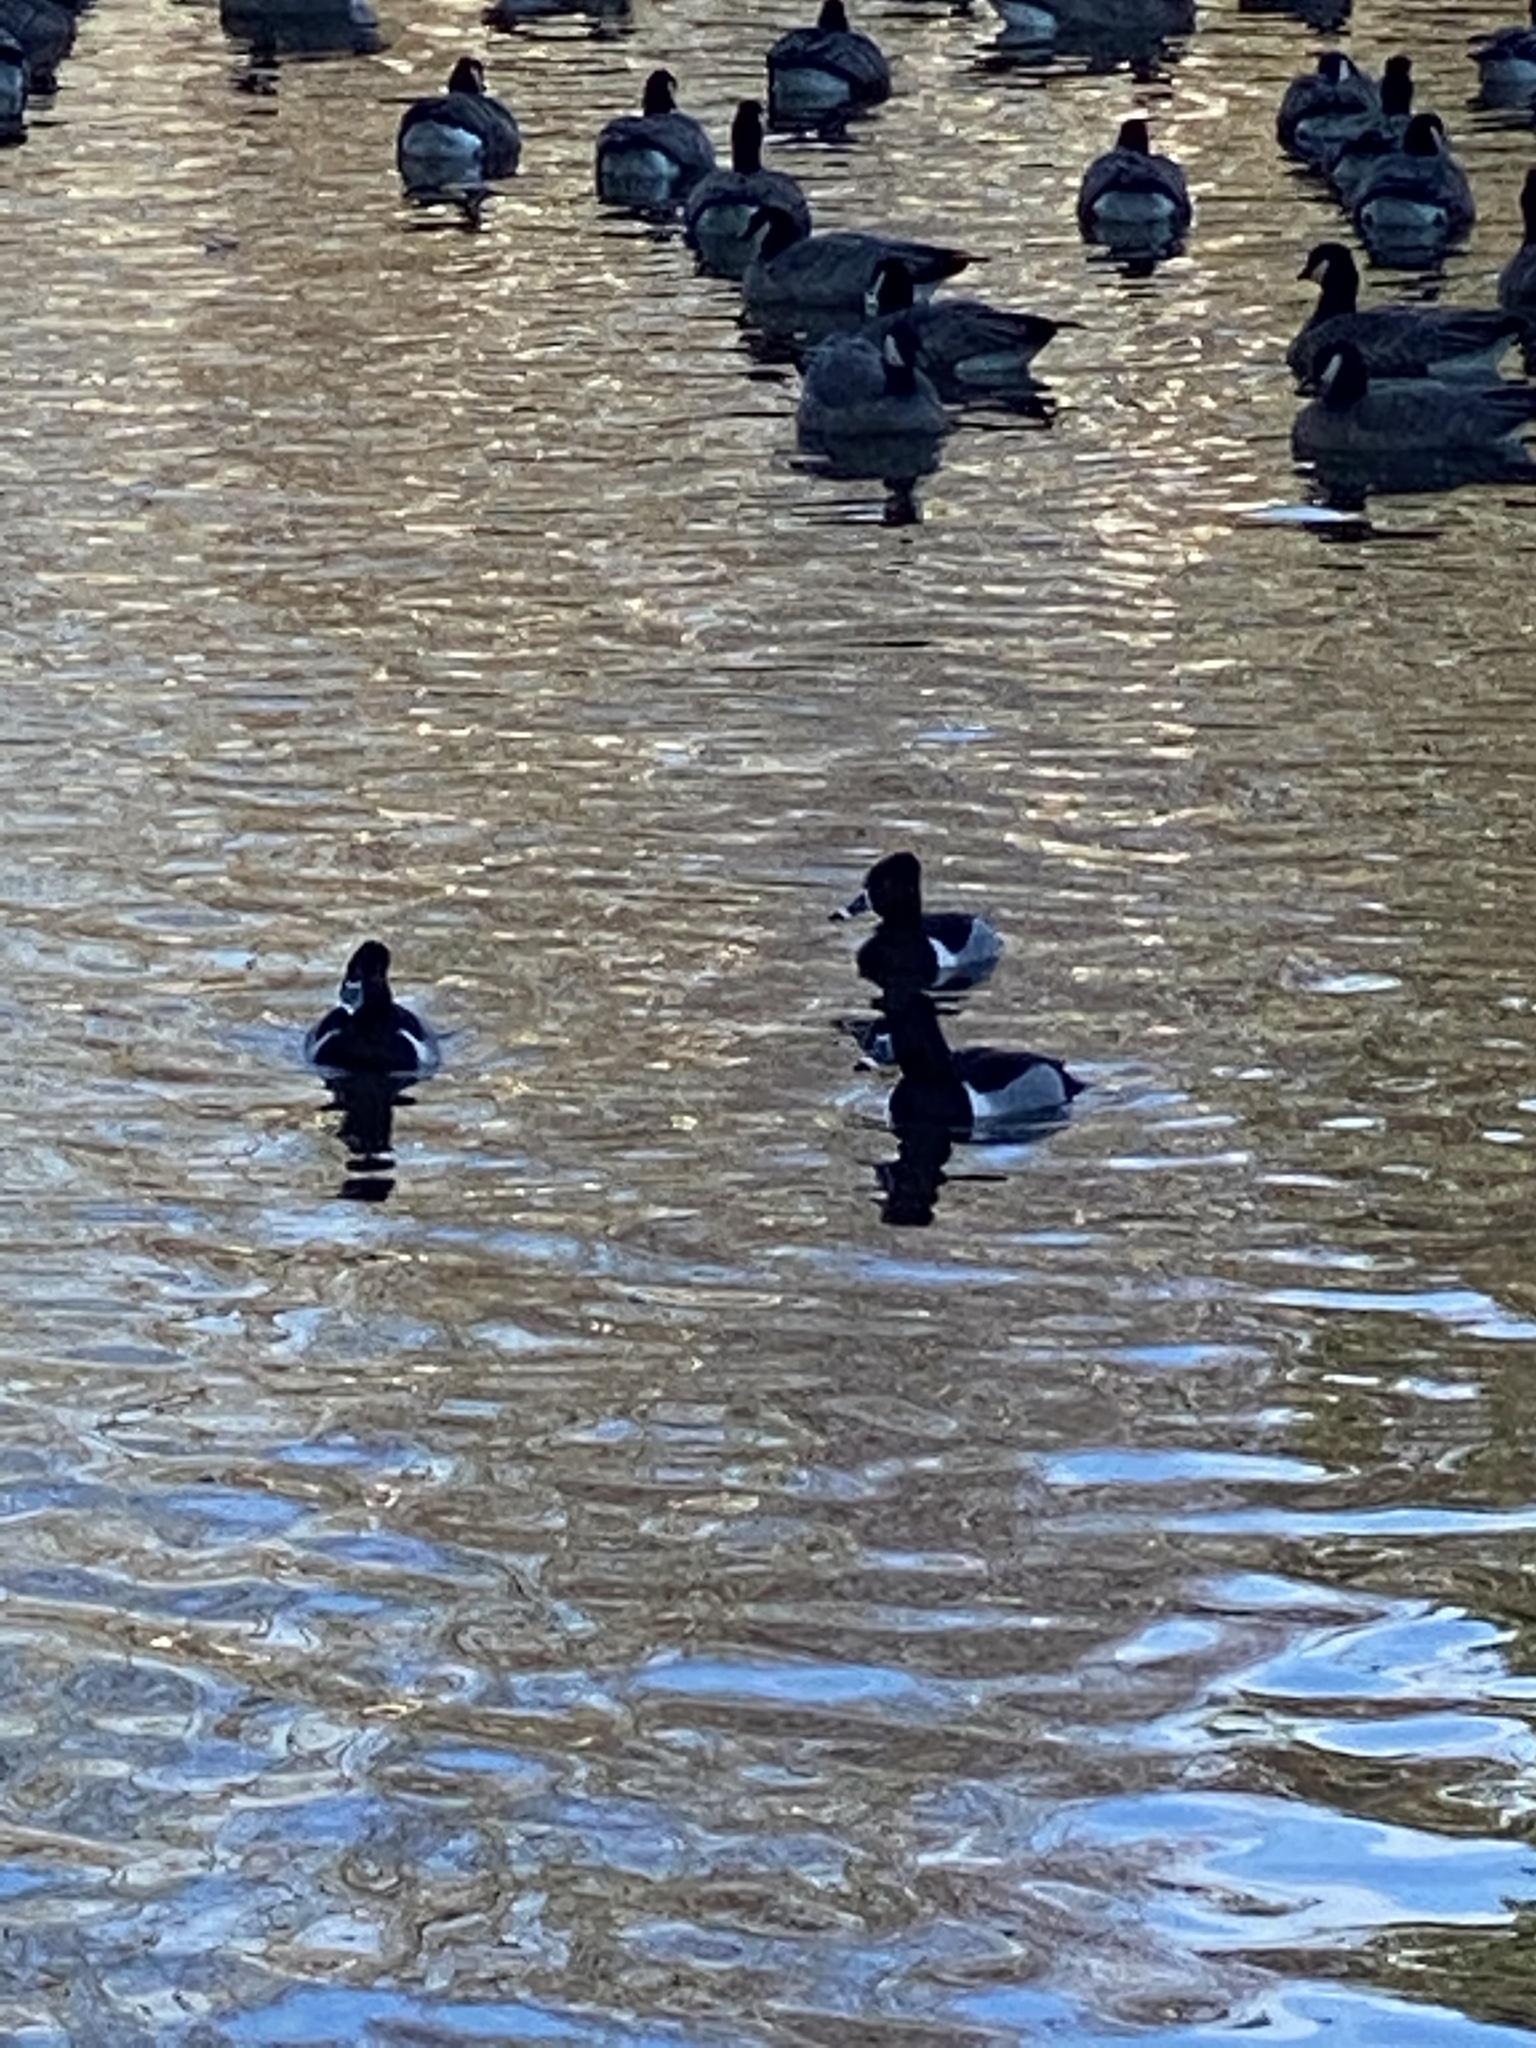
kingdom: Animalia
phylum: Chordata
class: Aves
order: Anseriformes
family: Anatidae
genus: Aythya
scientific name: Aythya collaris
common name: Ring-necked duck
